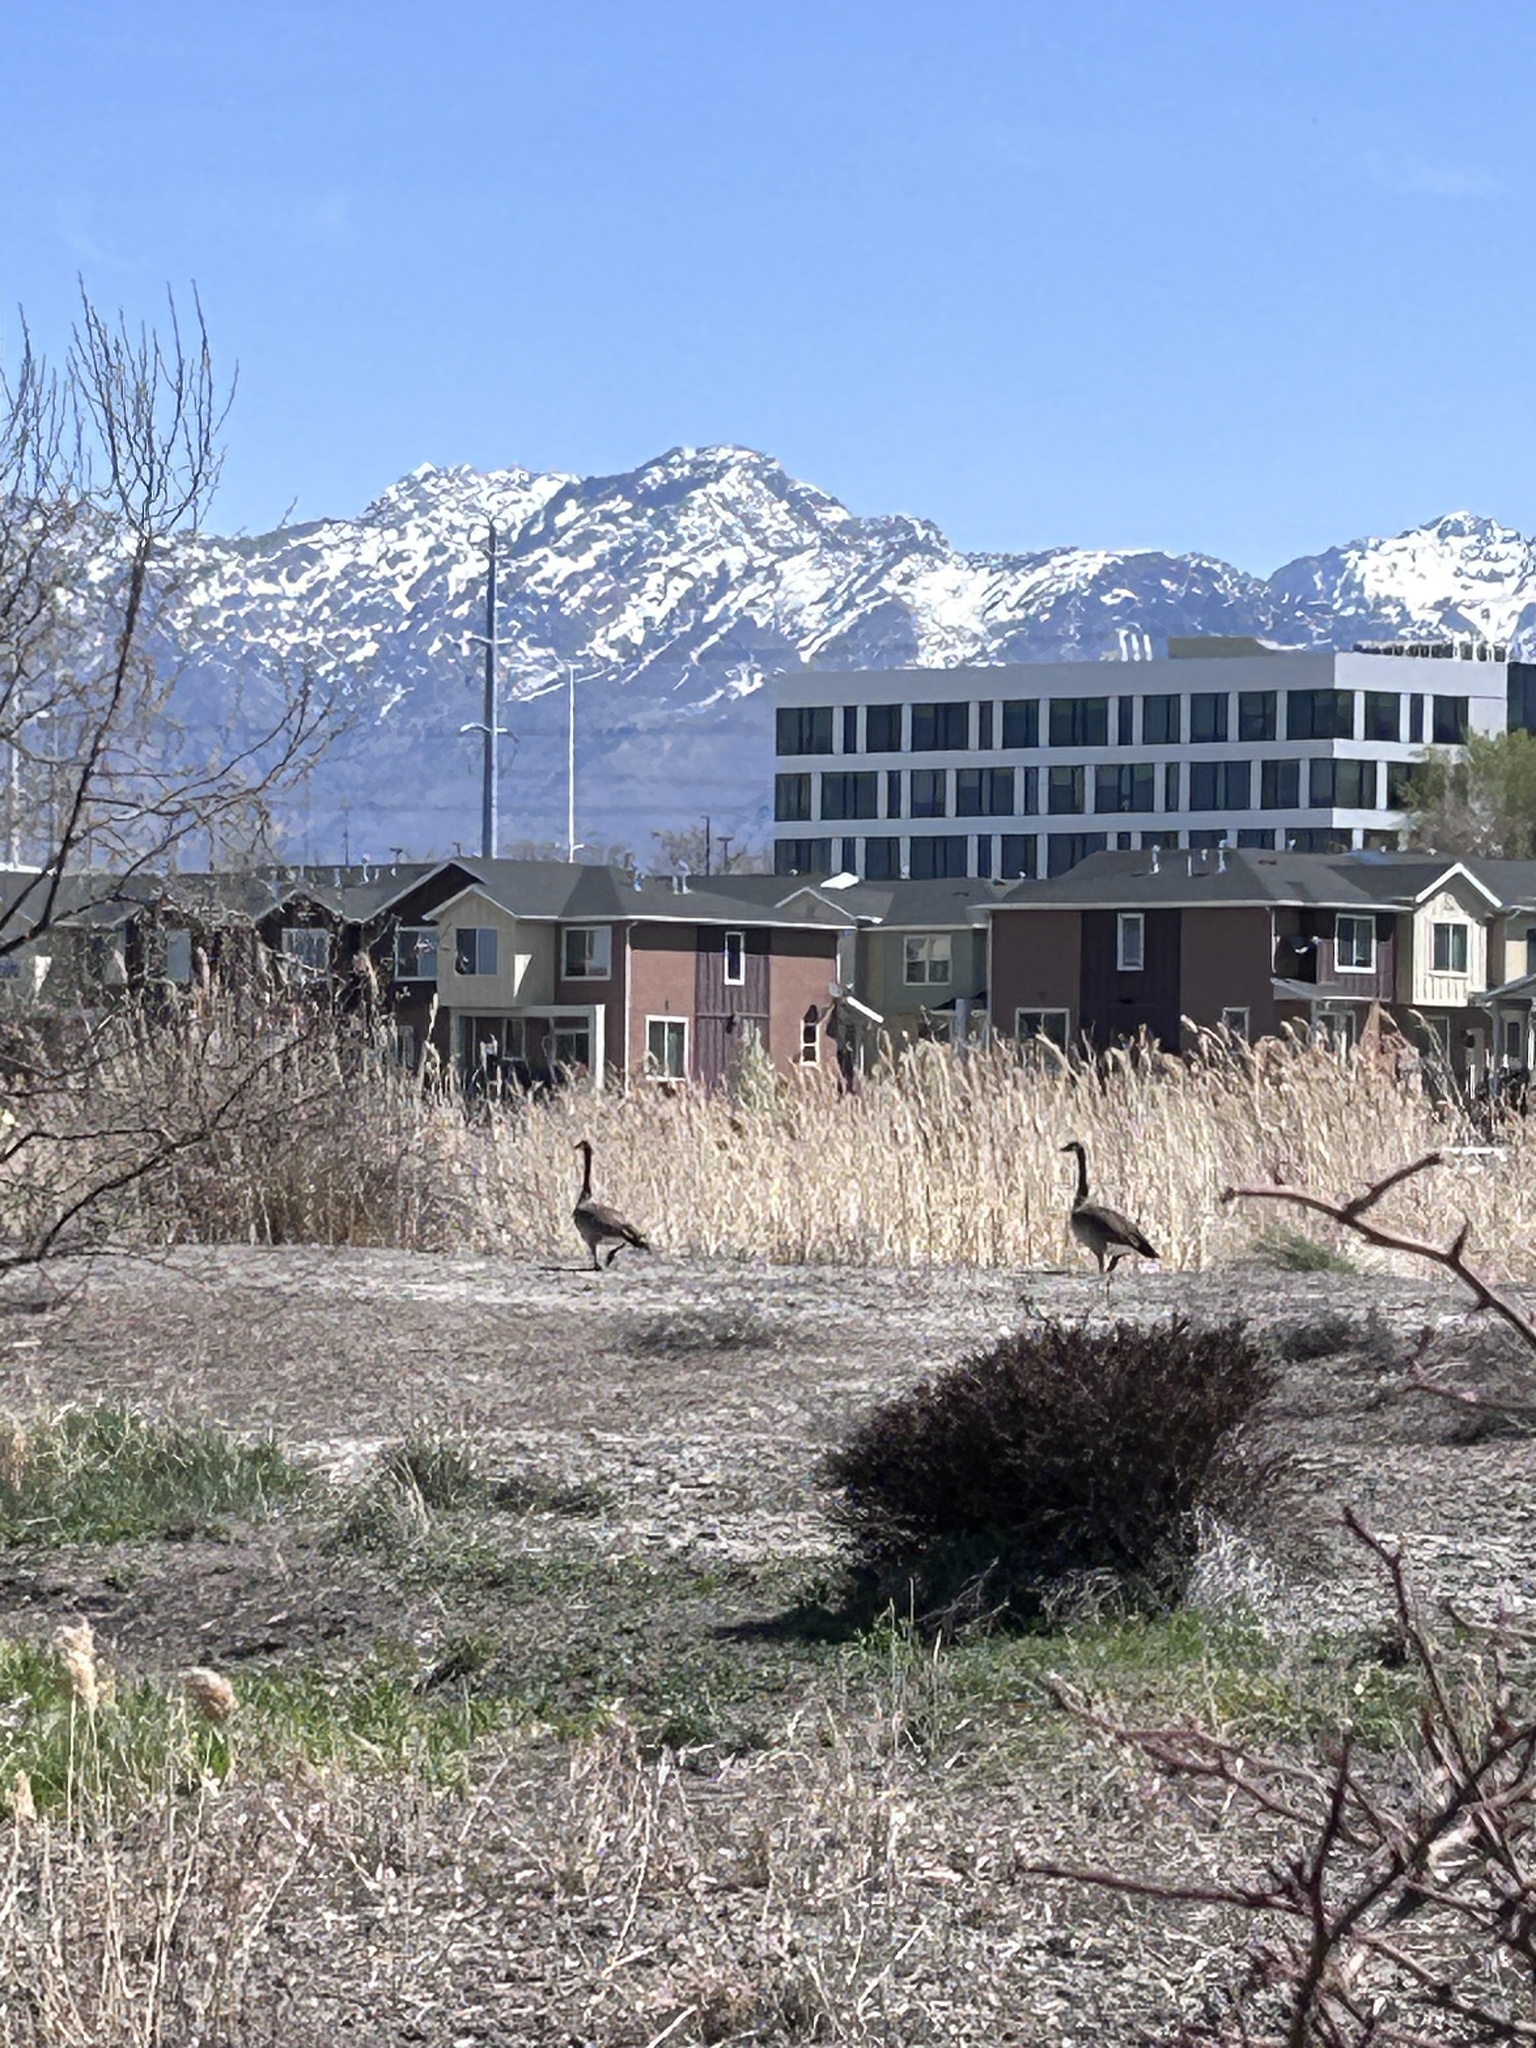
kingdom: Animalia
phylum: Chordata
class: Aves
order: Anseriformes
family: Anatidae
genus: Branta
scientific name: Branta canadensis
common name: Canada goose
